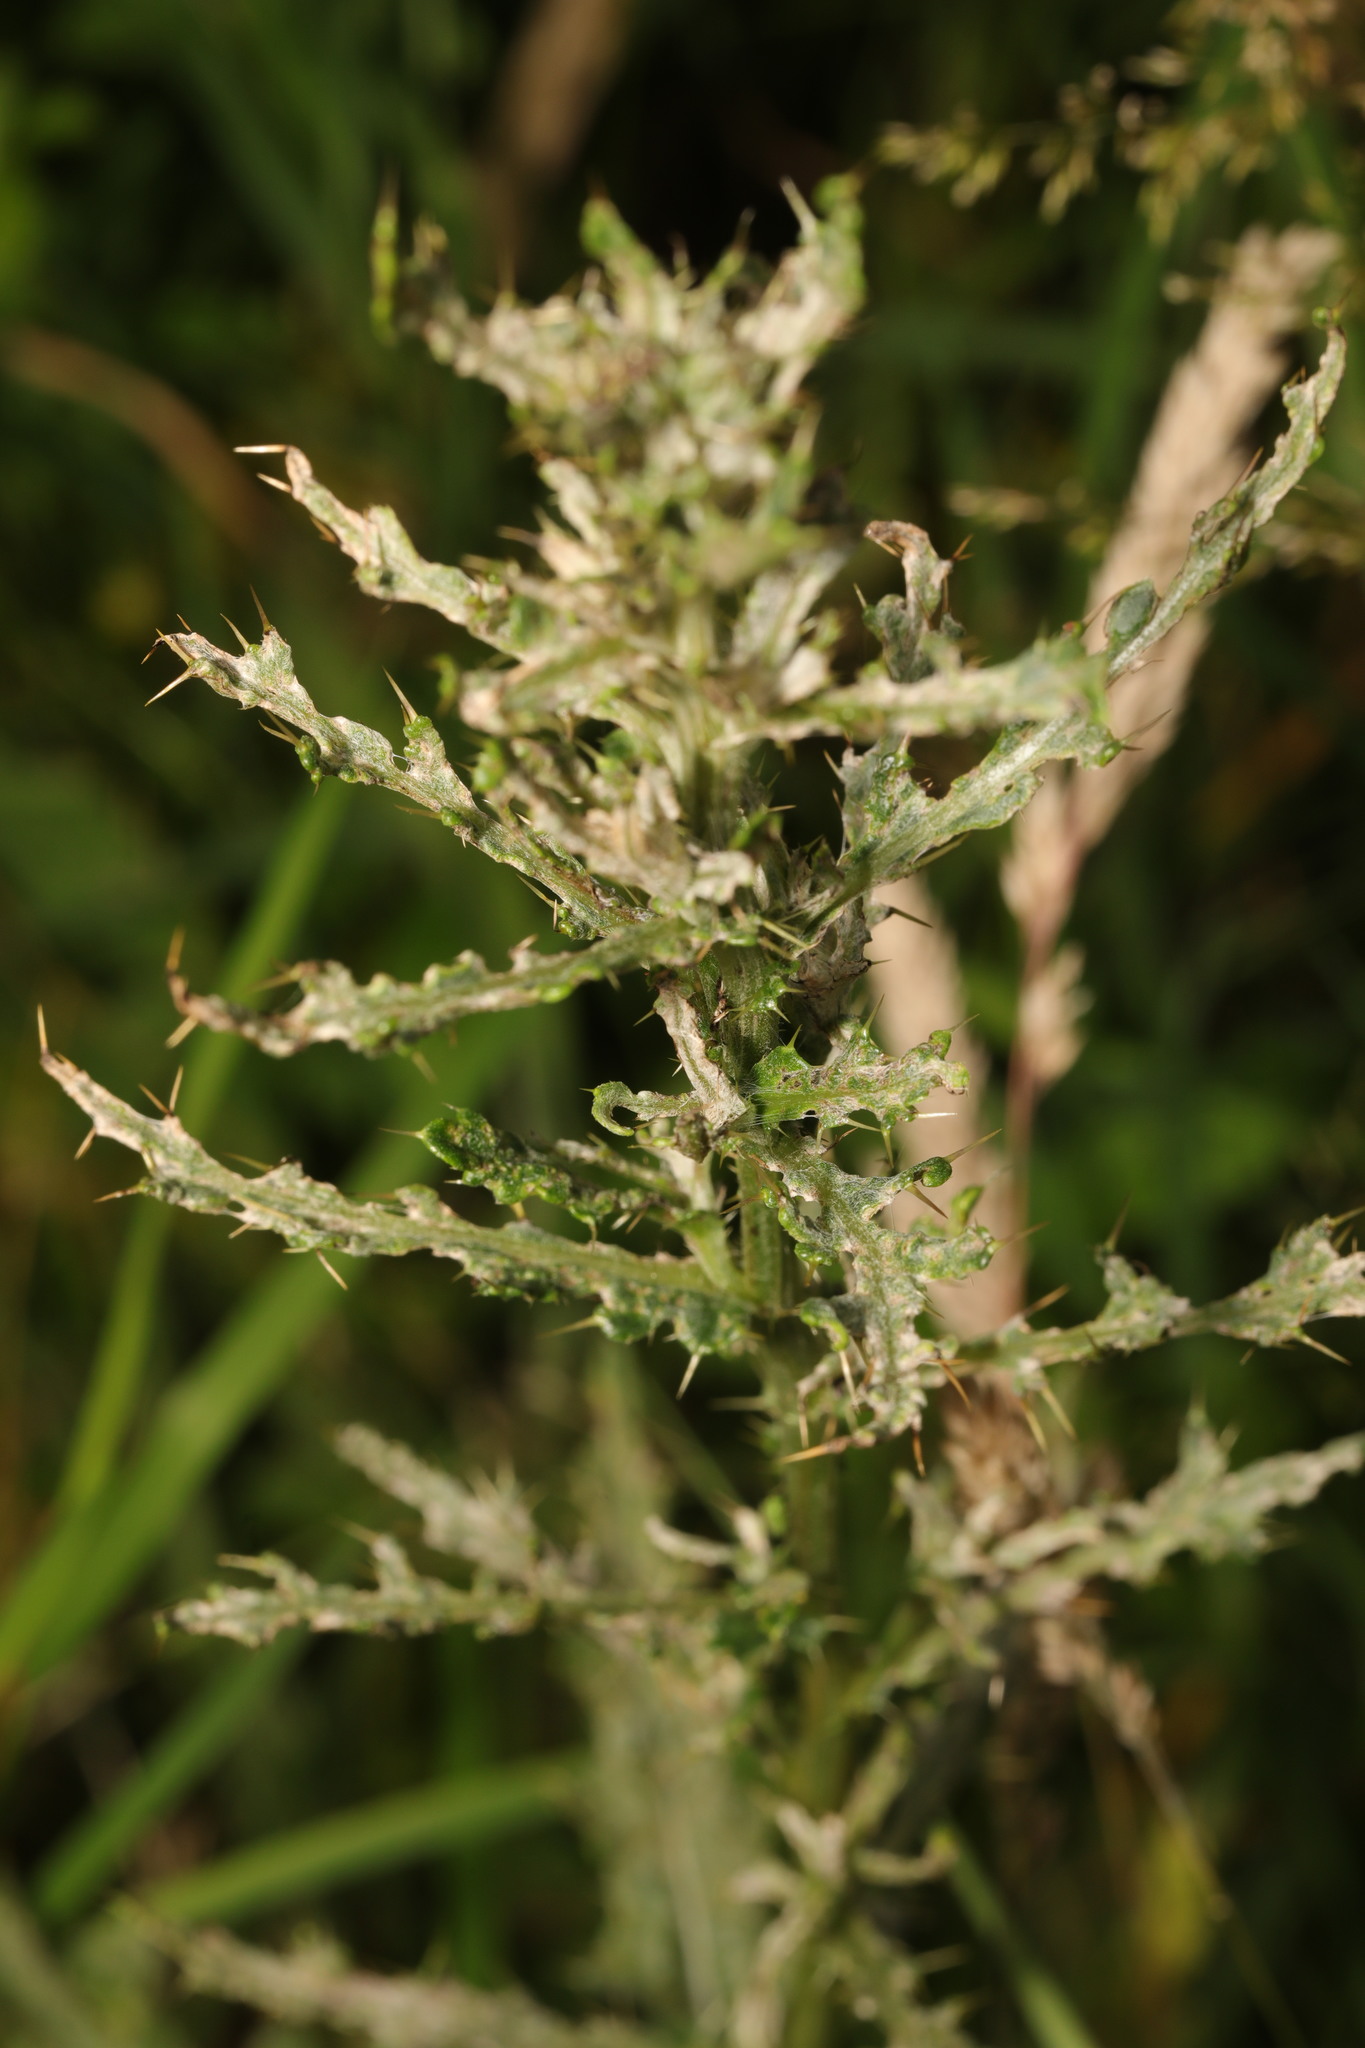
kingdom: Fungi
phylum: Ascomycota
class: Leotiomycetes
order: Helotiales
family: Erysiphaceae
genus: Golovinomyces
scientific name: Golovinomyces montagnei
